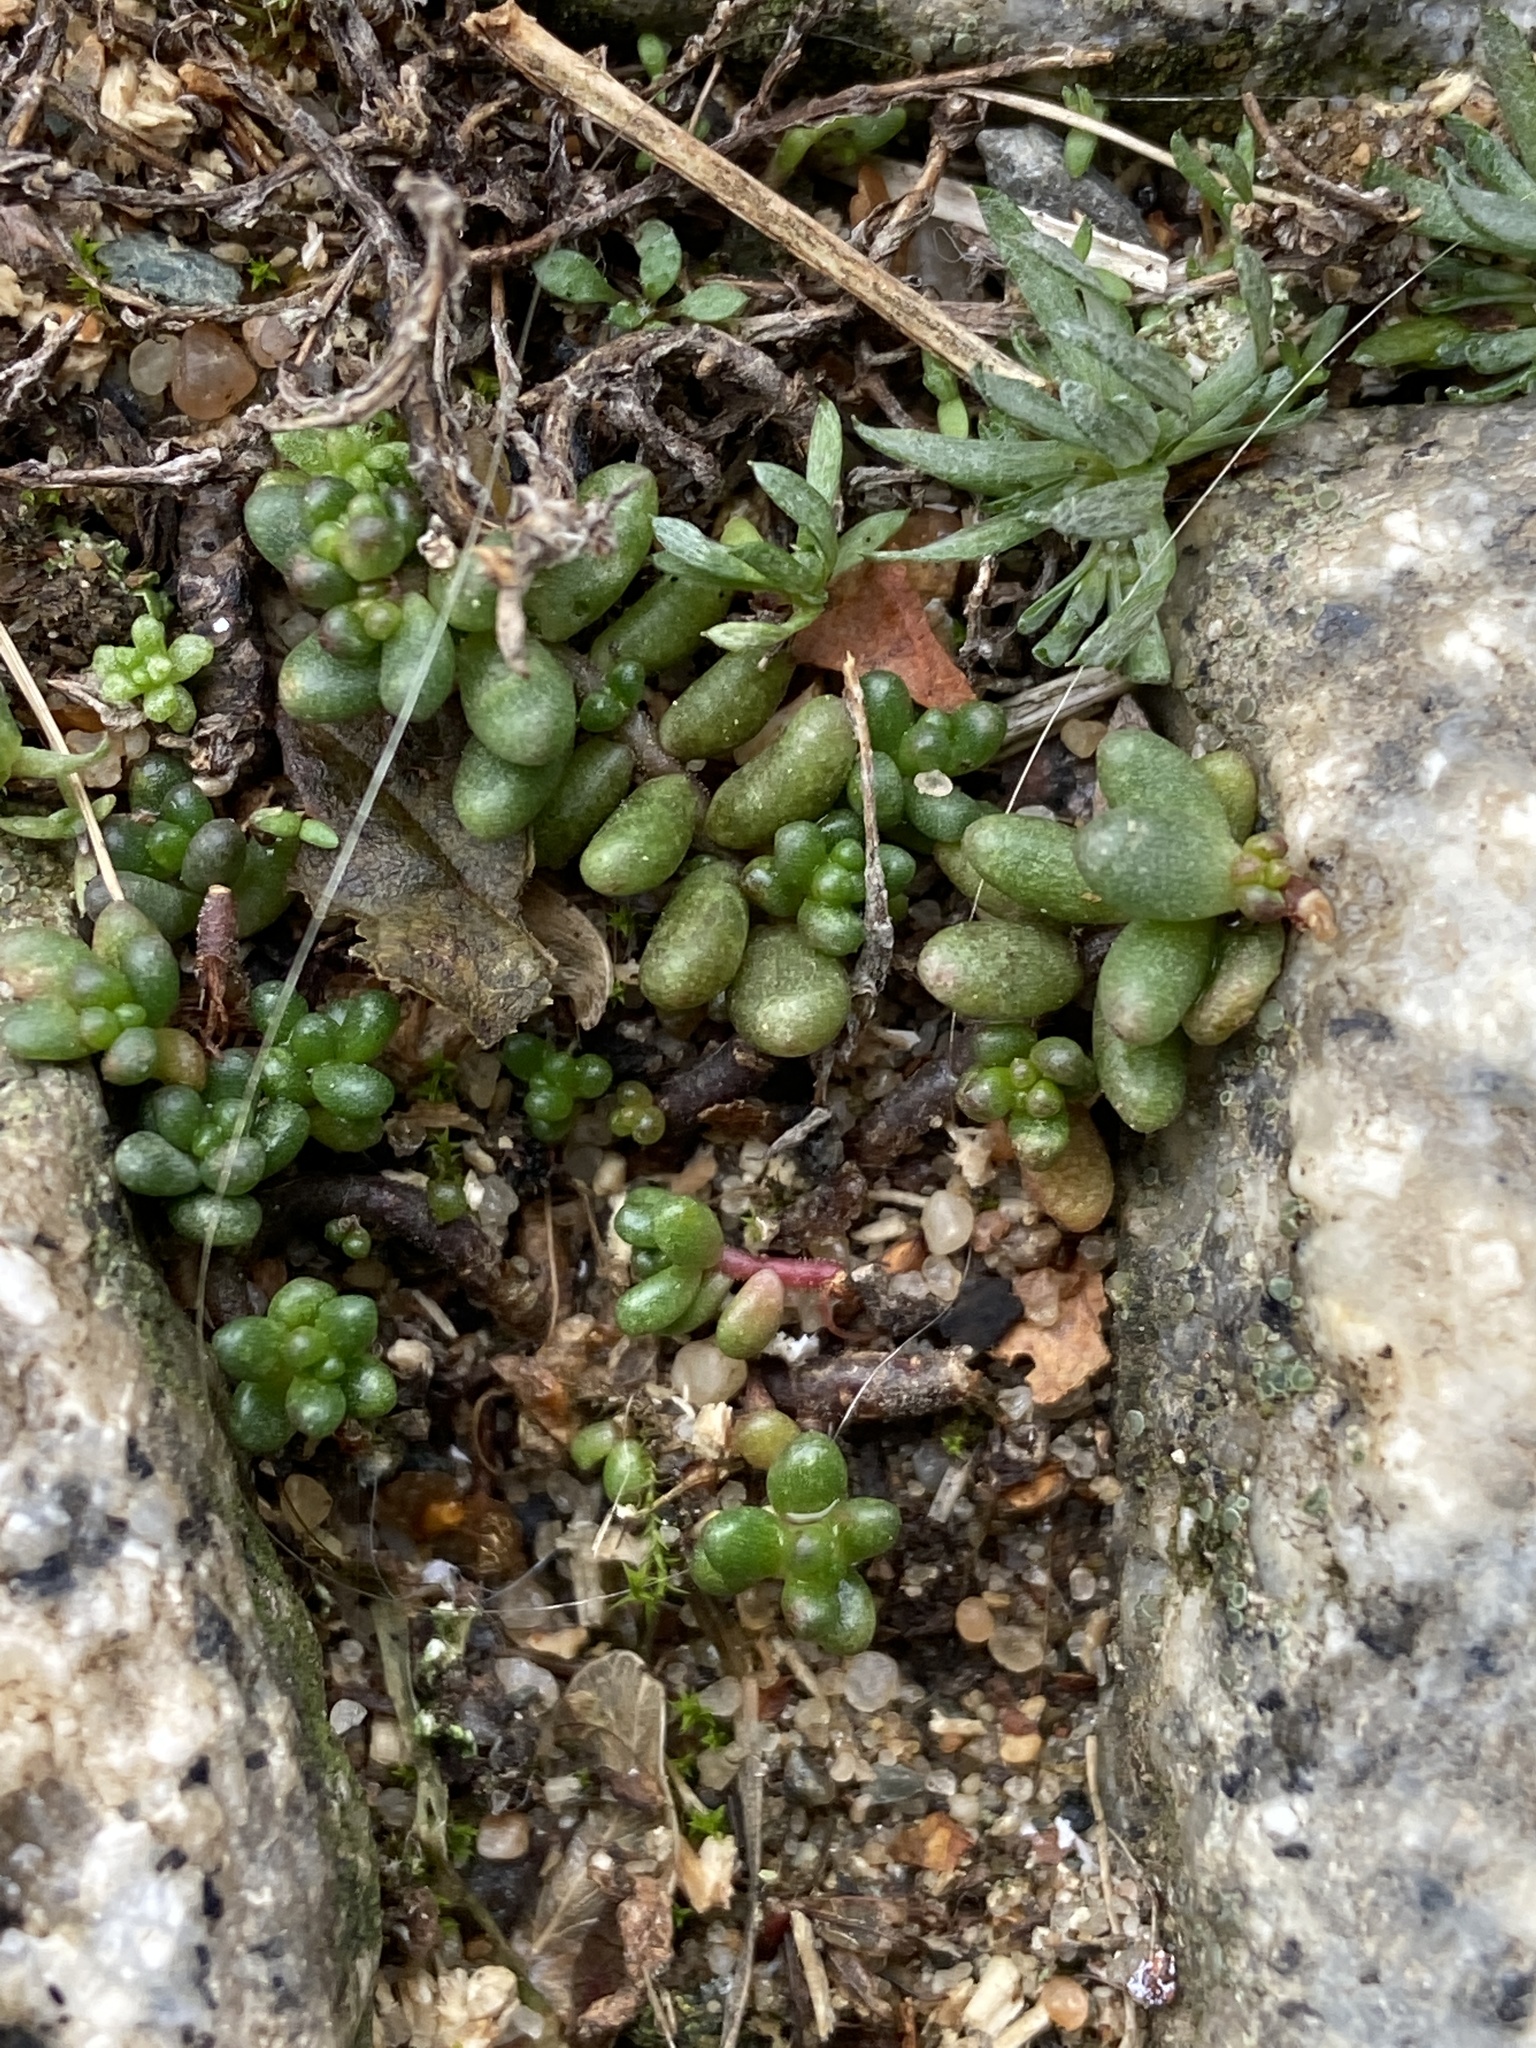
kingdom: Plantae
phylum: Tracheophyta
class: Magnoliopsida
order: Saxifragales
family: Crassulaceae
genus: Sedum
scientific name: Sedum album
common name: White stonecrop
